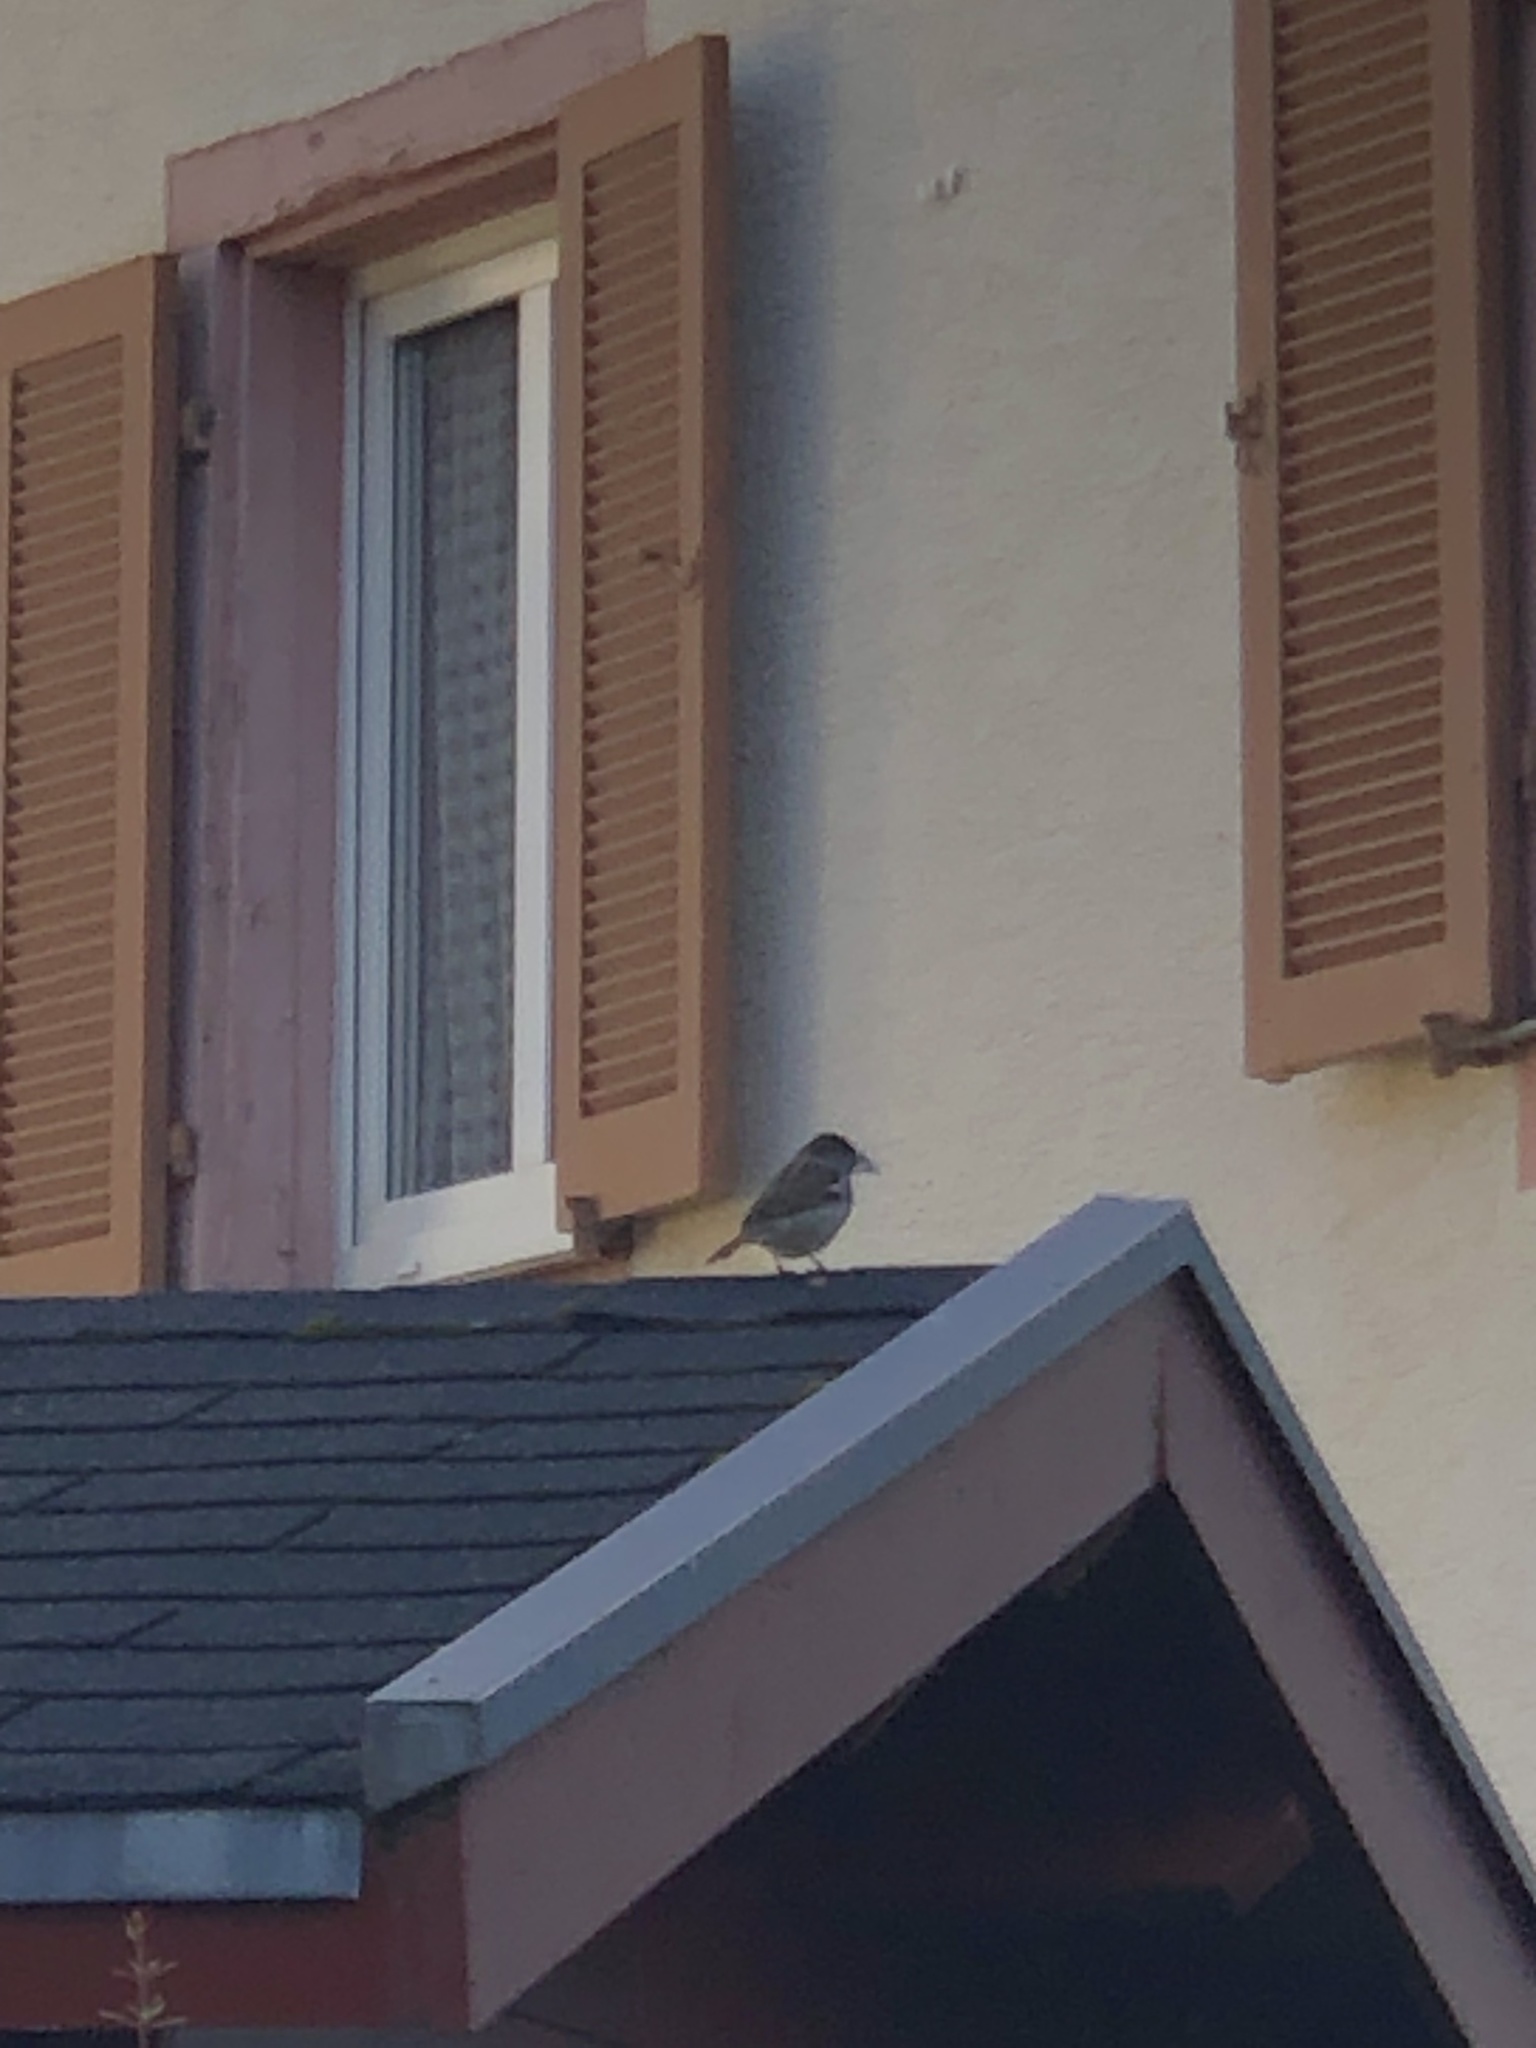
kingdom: Animalia
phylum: Chordata
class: Aves
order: Passeriformes
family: Passeridae
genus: Passer
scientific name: Passer domesticus
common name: House sparrow
